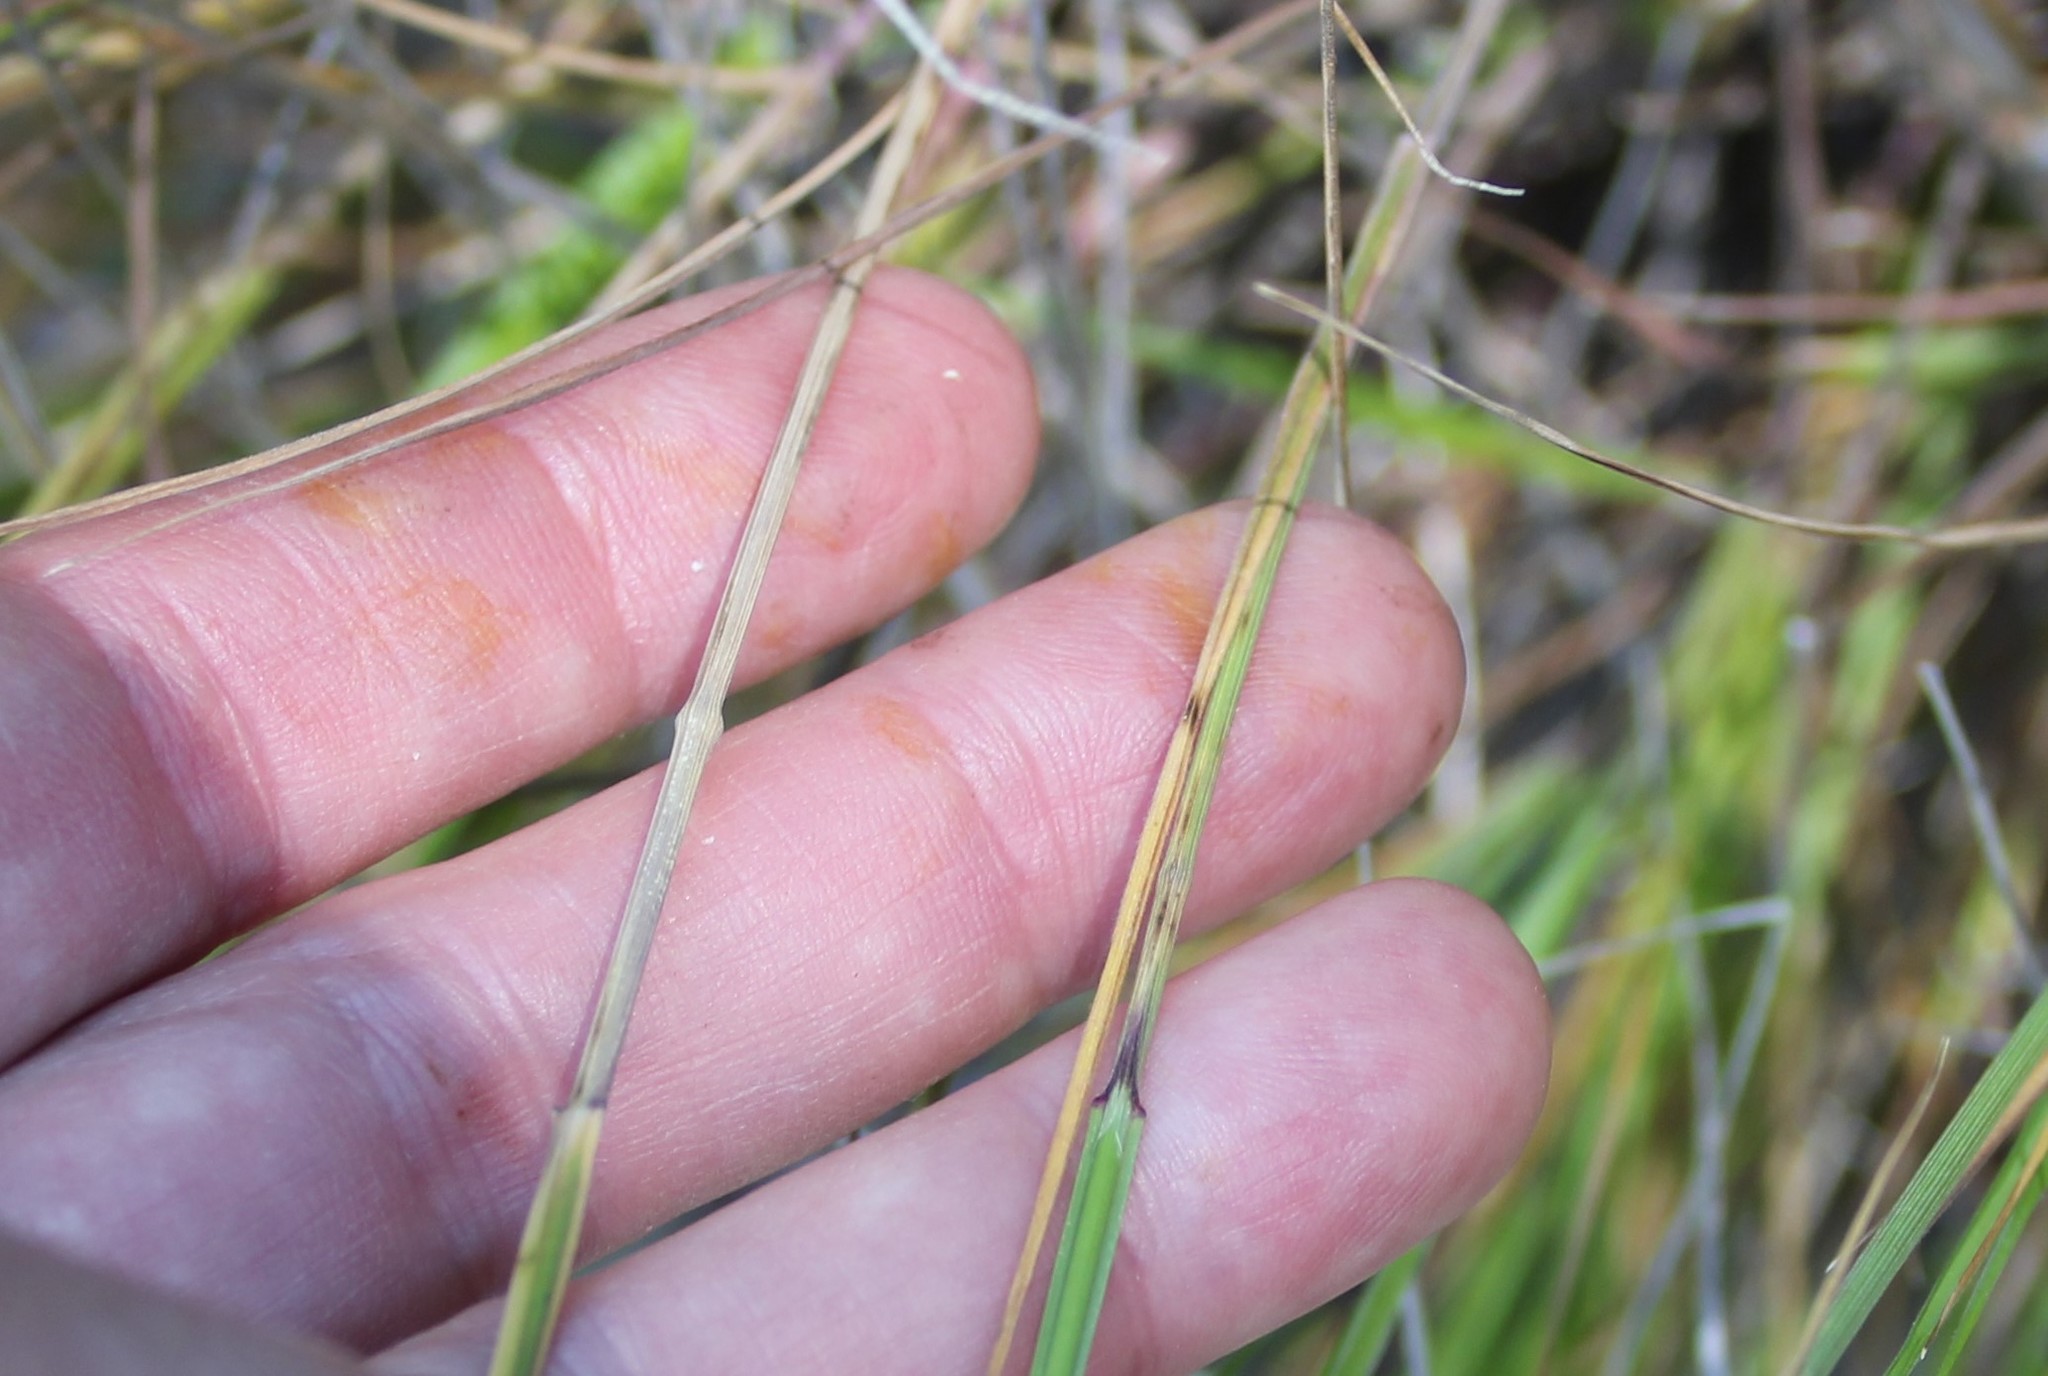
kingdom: Plantae
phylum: Tracheophyta
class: Liliopsida
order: Poales
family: Poaceae
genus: Melica
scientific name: Melica imperfecta
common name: California melic
